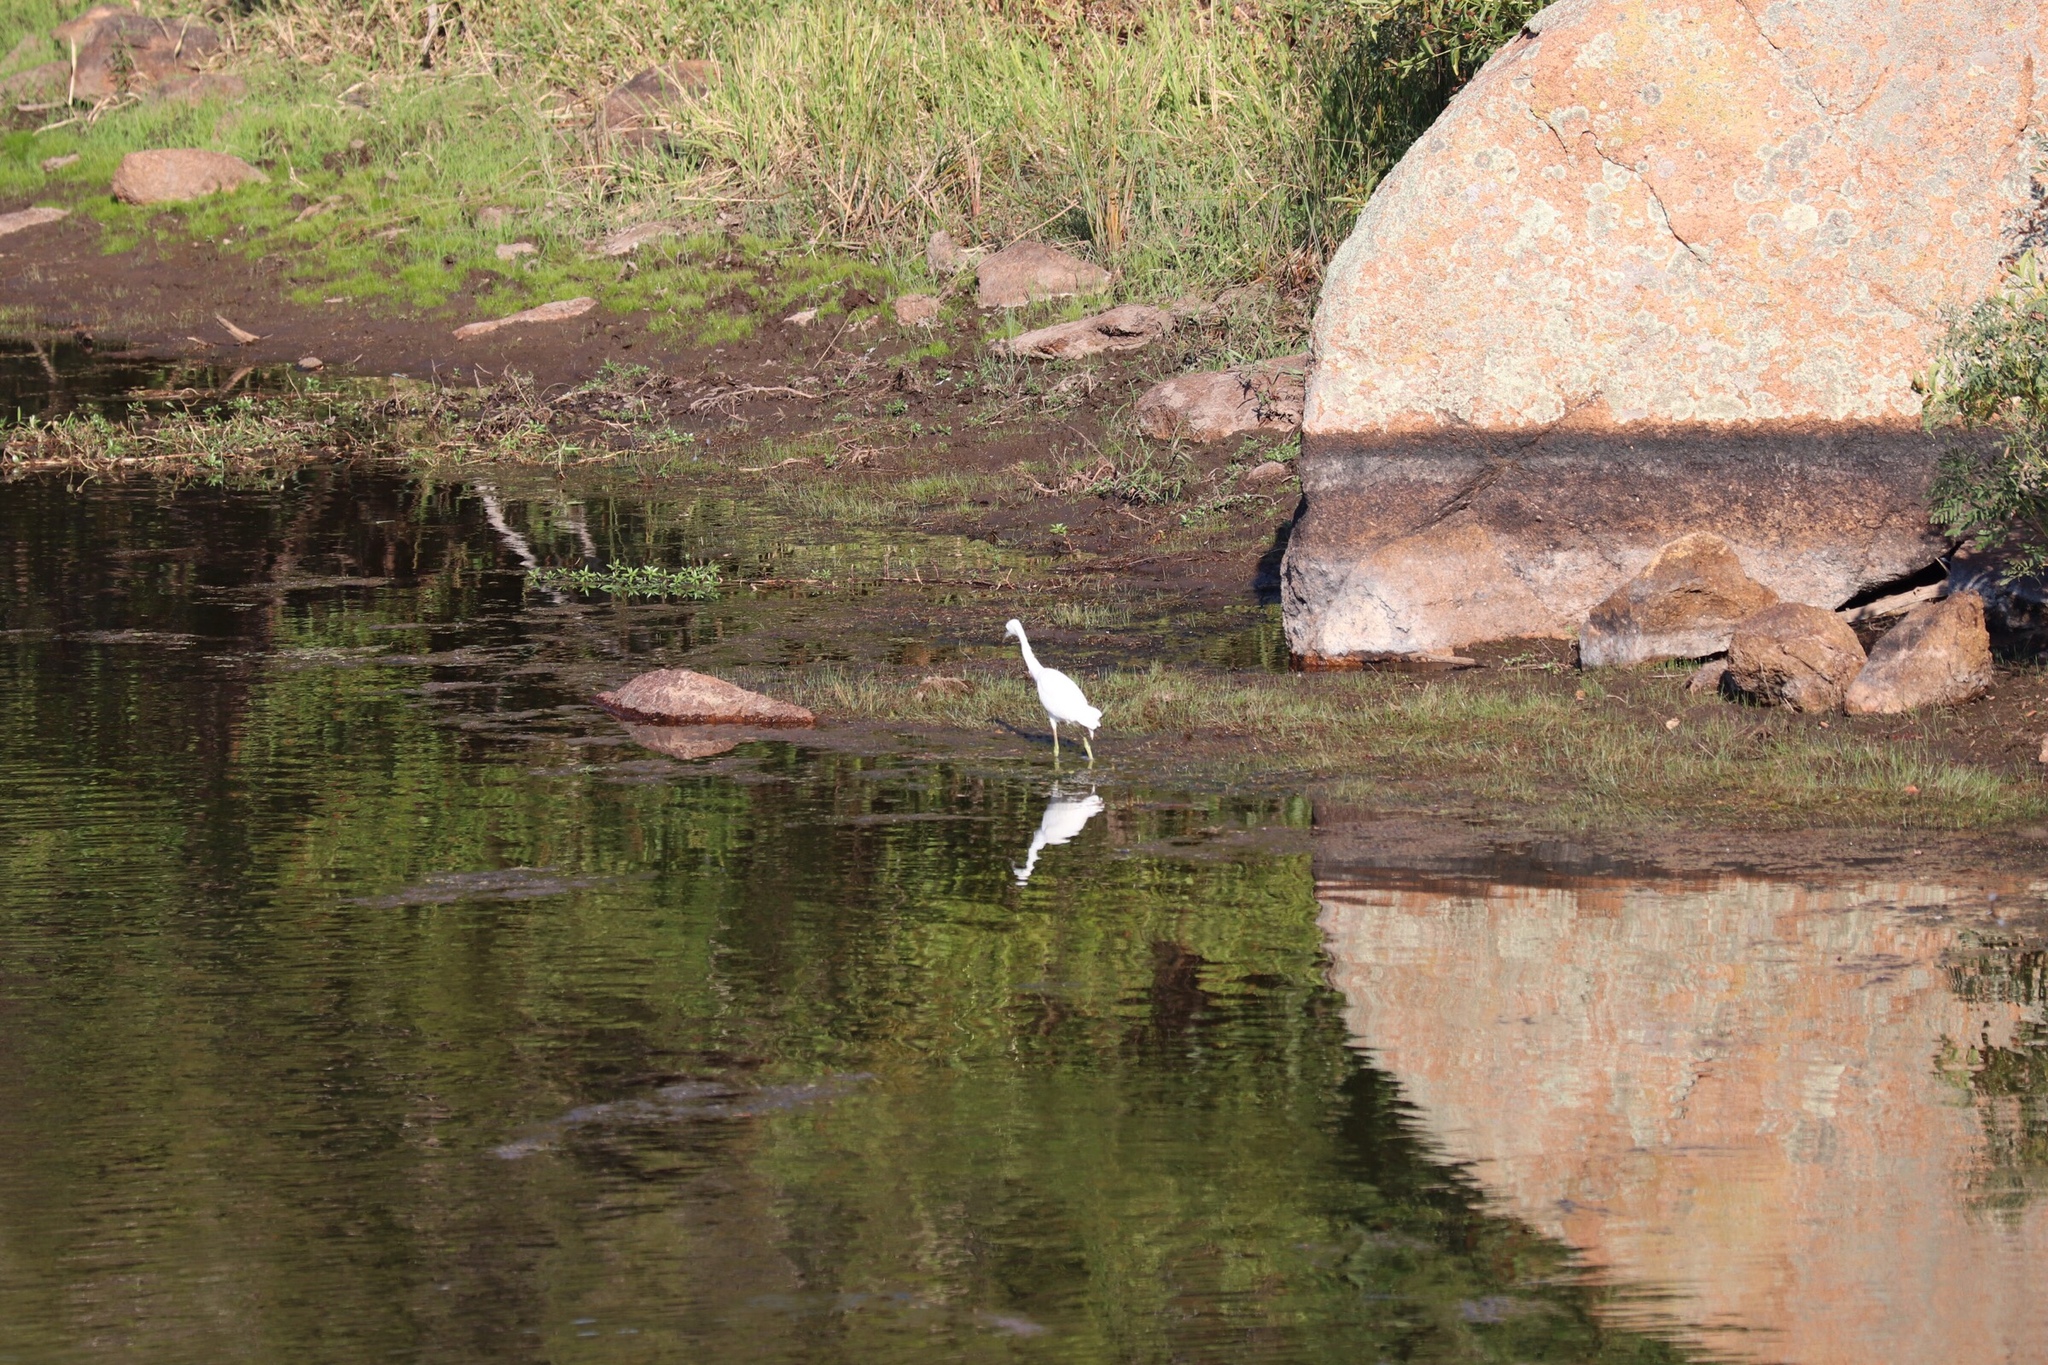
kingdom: Animalia
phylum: Chordata
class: Aves
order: Pelecaniformes
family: Ardeidae
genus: Egretta
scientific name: Egretta caerulea
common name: Little blue heron
